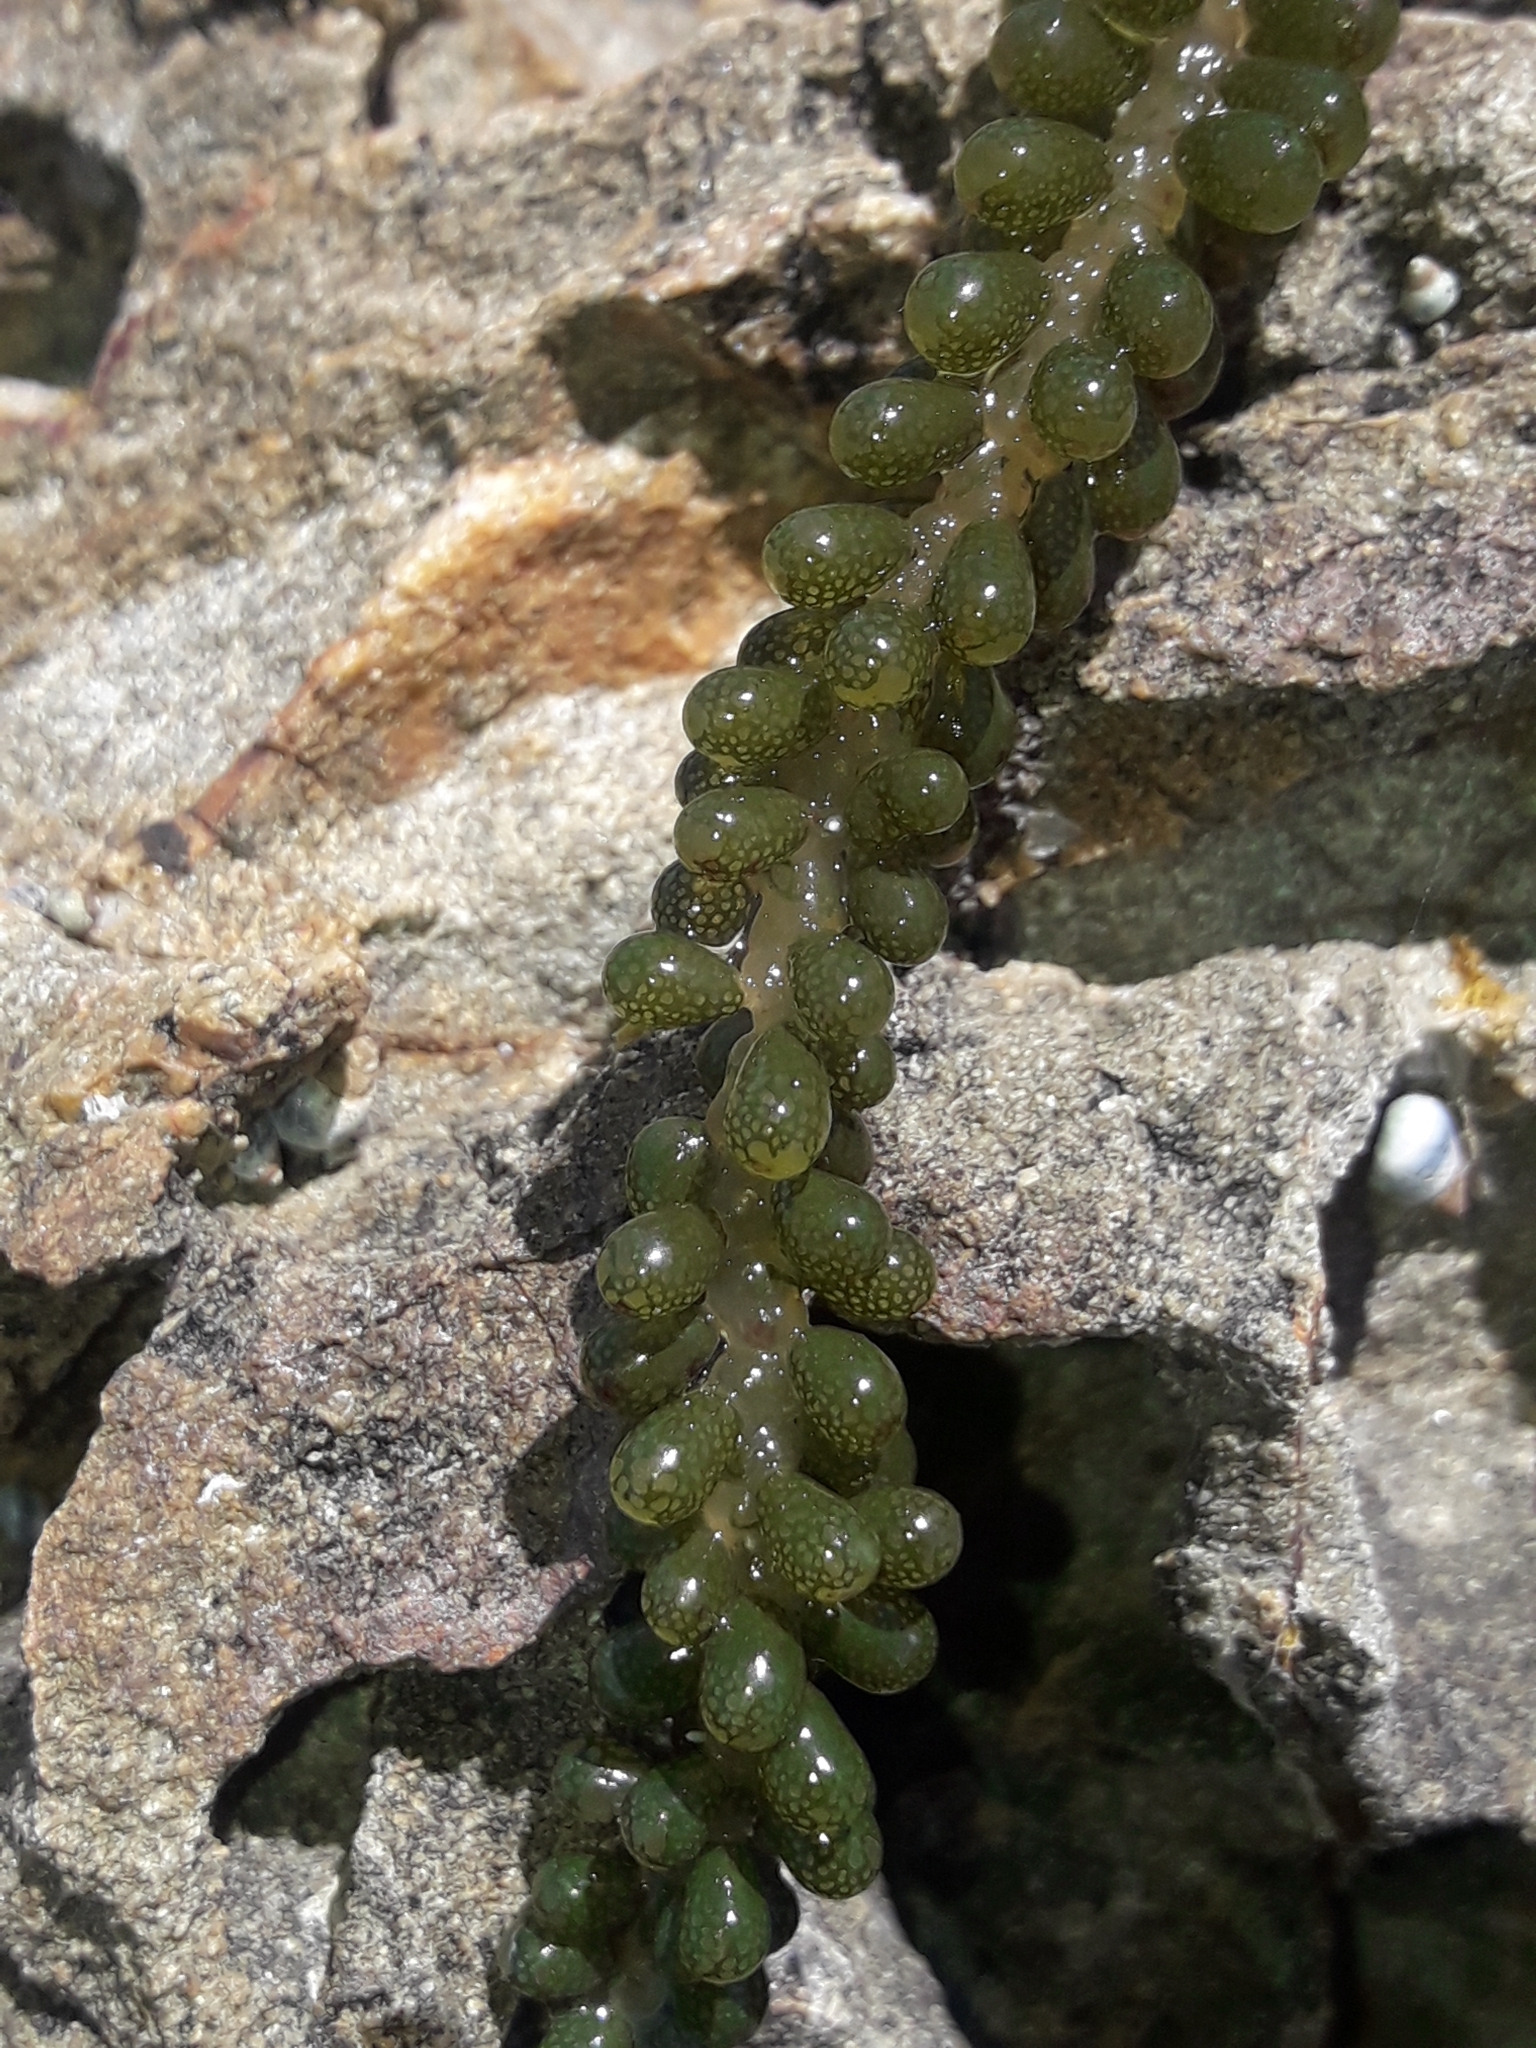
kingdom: Plantae
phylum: Chlorophyta
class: Ulvophyceae
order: Bryopsidales
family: Caulerpaceae
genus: Caulerpa
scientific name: Caulerpa geminata
